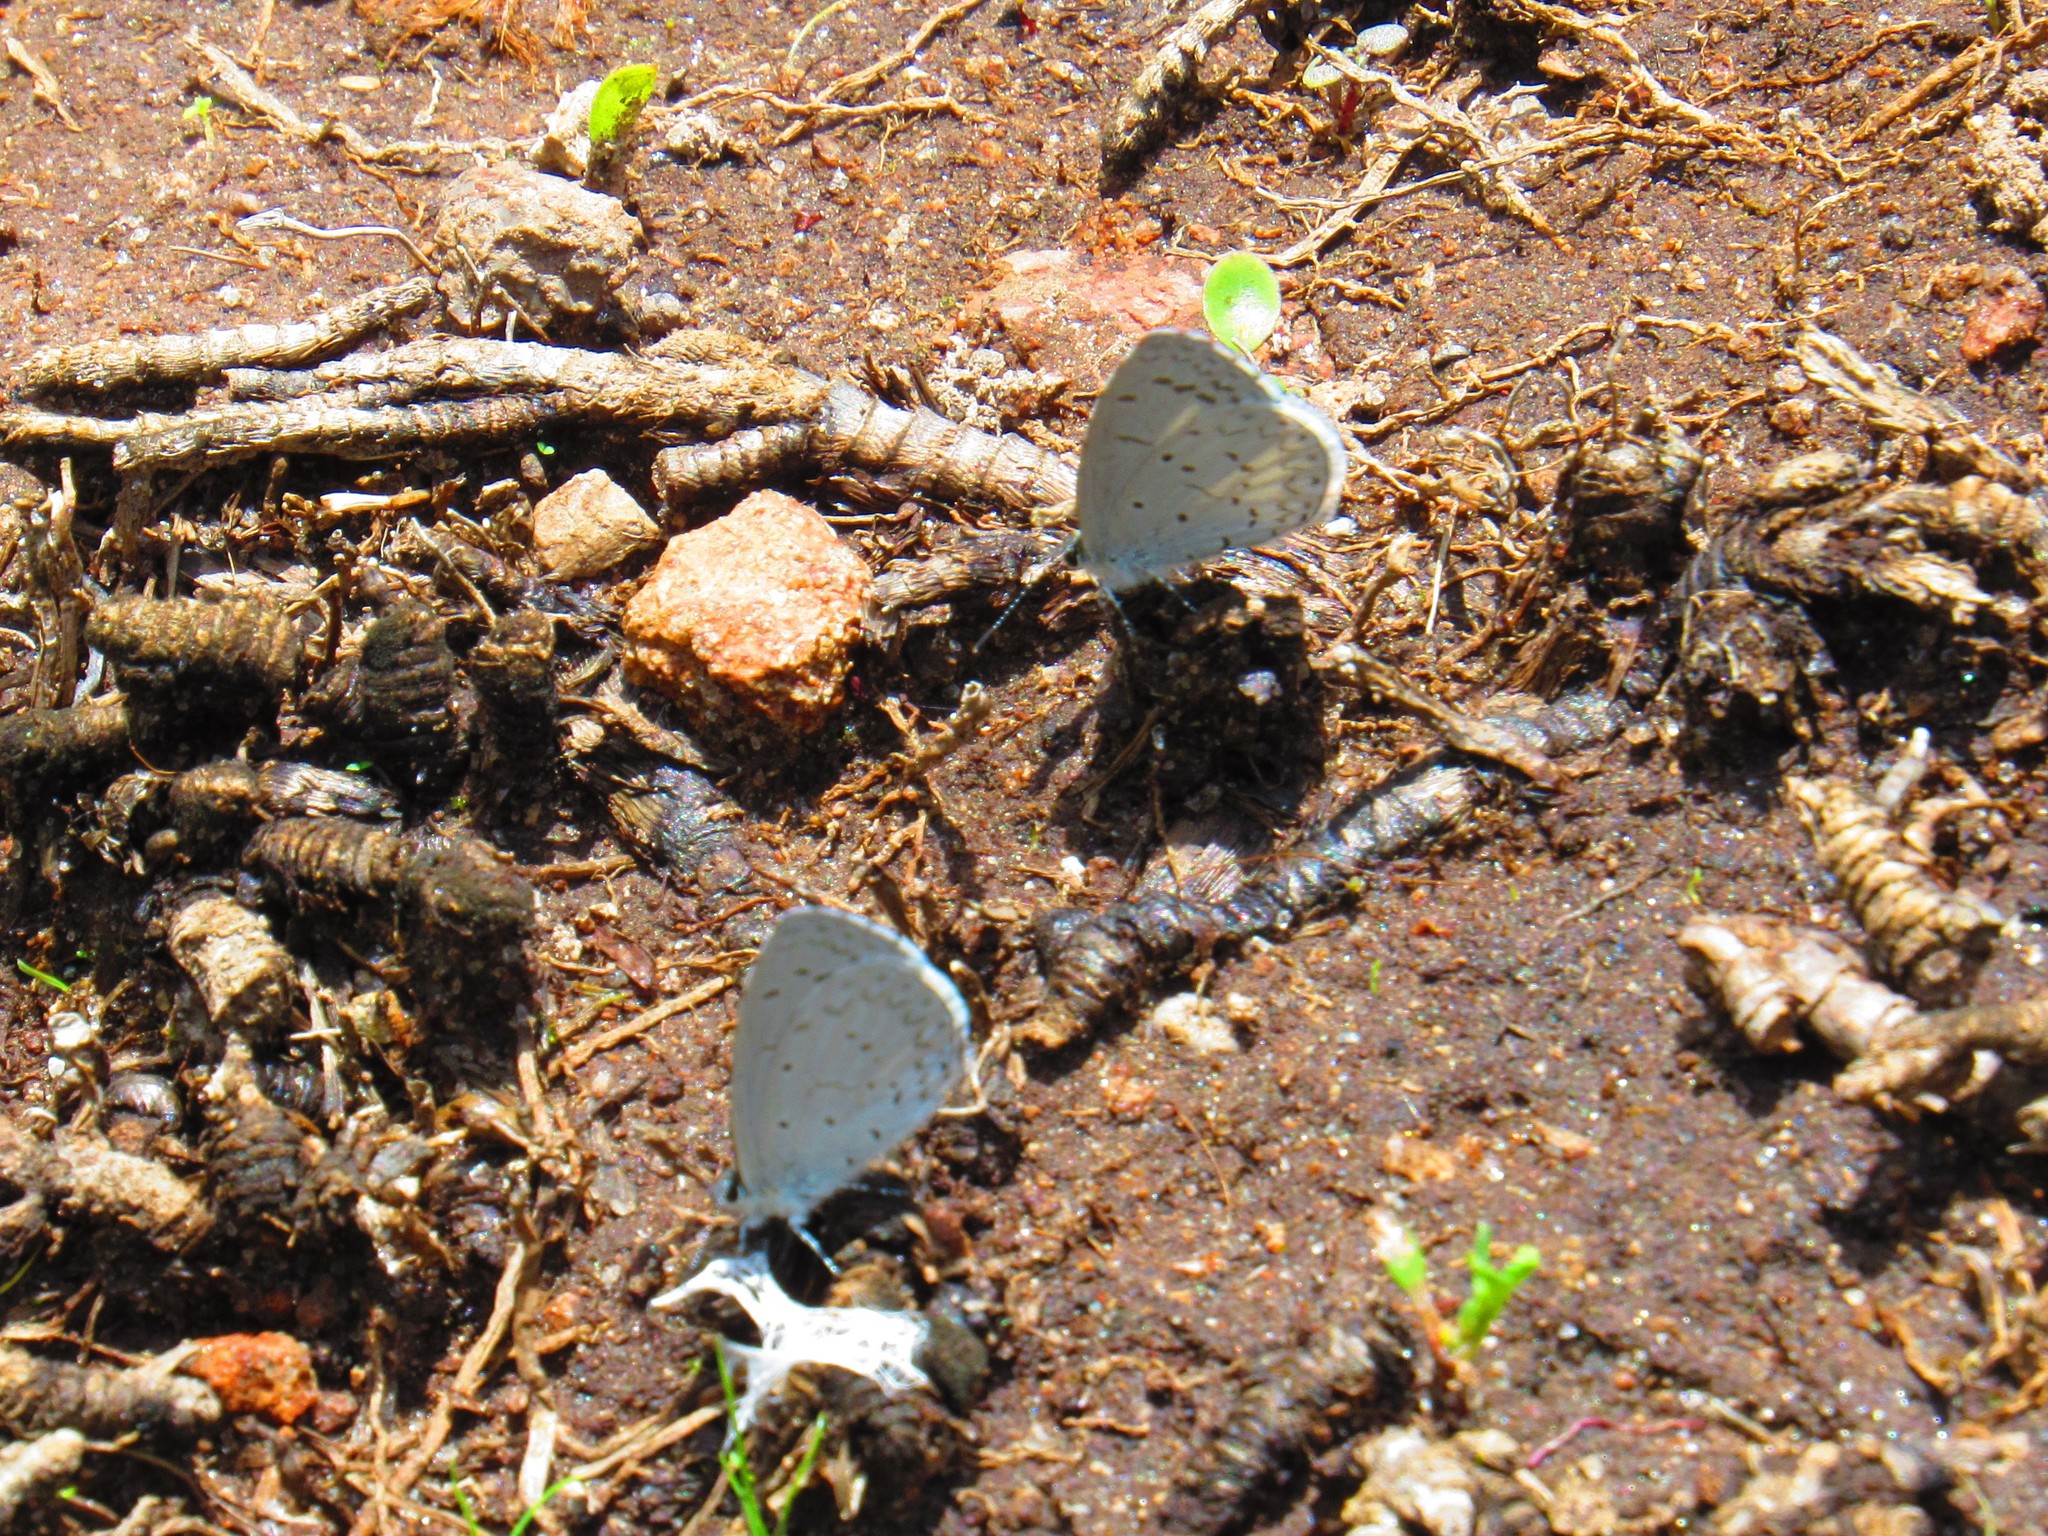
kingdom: Animalia
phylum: Arthropoda
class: Insecta
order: Lepidoptera
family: Lycaenidae
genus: Celastrina
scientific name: Celastrina ladon
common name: Spring azure
